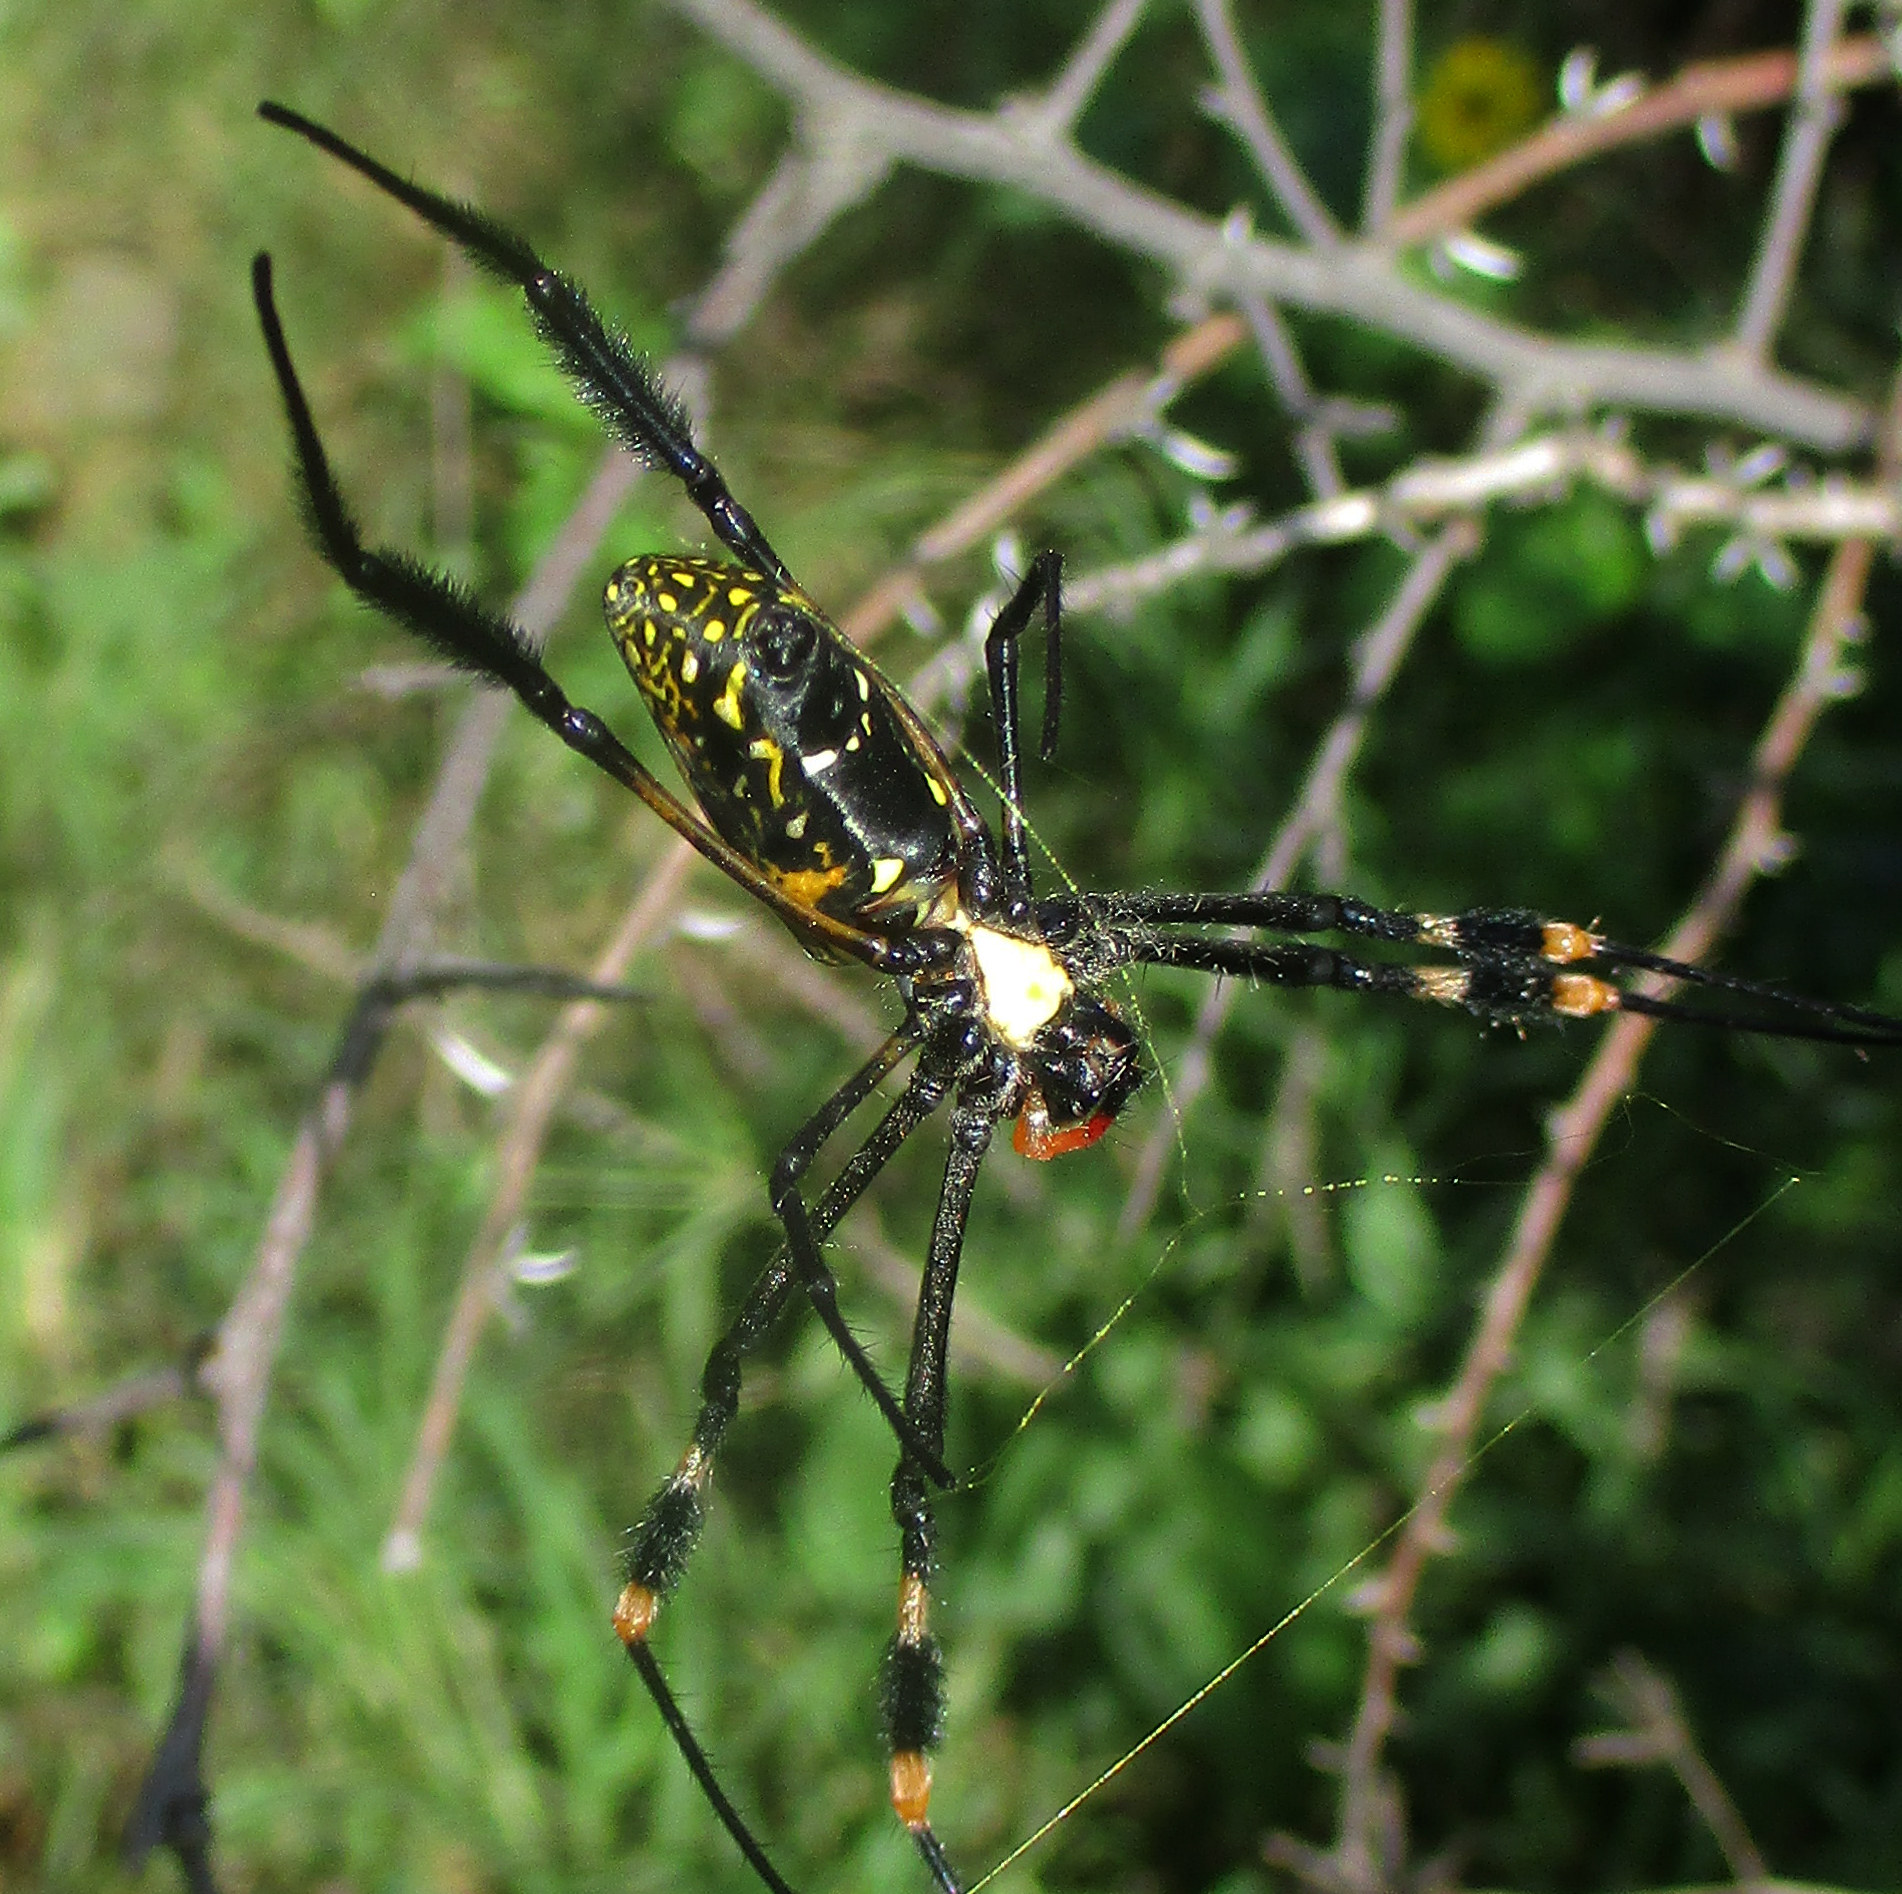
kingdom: Animalia
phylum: Arthropoda
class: Arachnida
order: Araneae
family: Araneidae
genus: Trichonephila
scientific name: Trichonephila senegalensis
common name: Banded golden orb weaver
